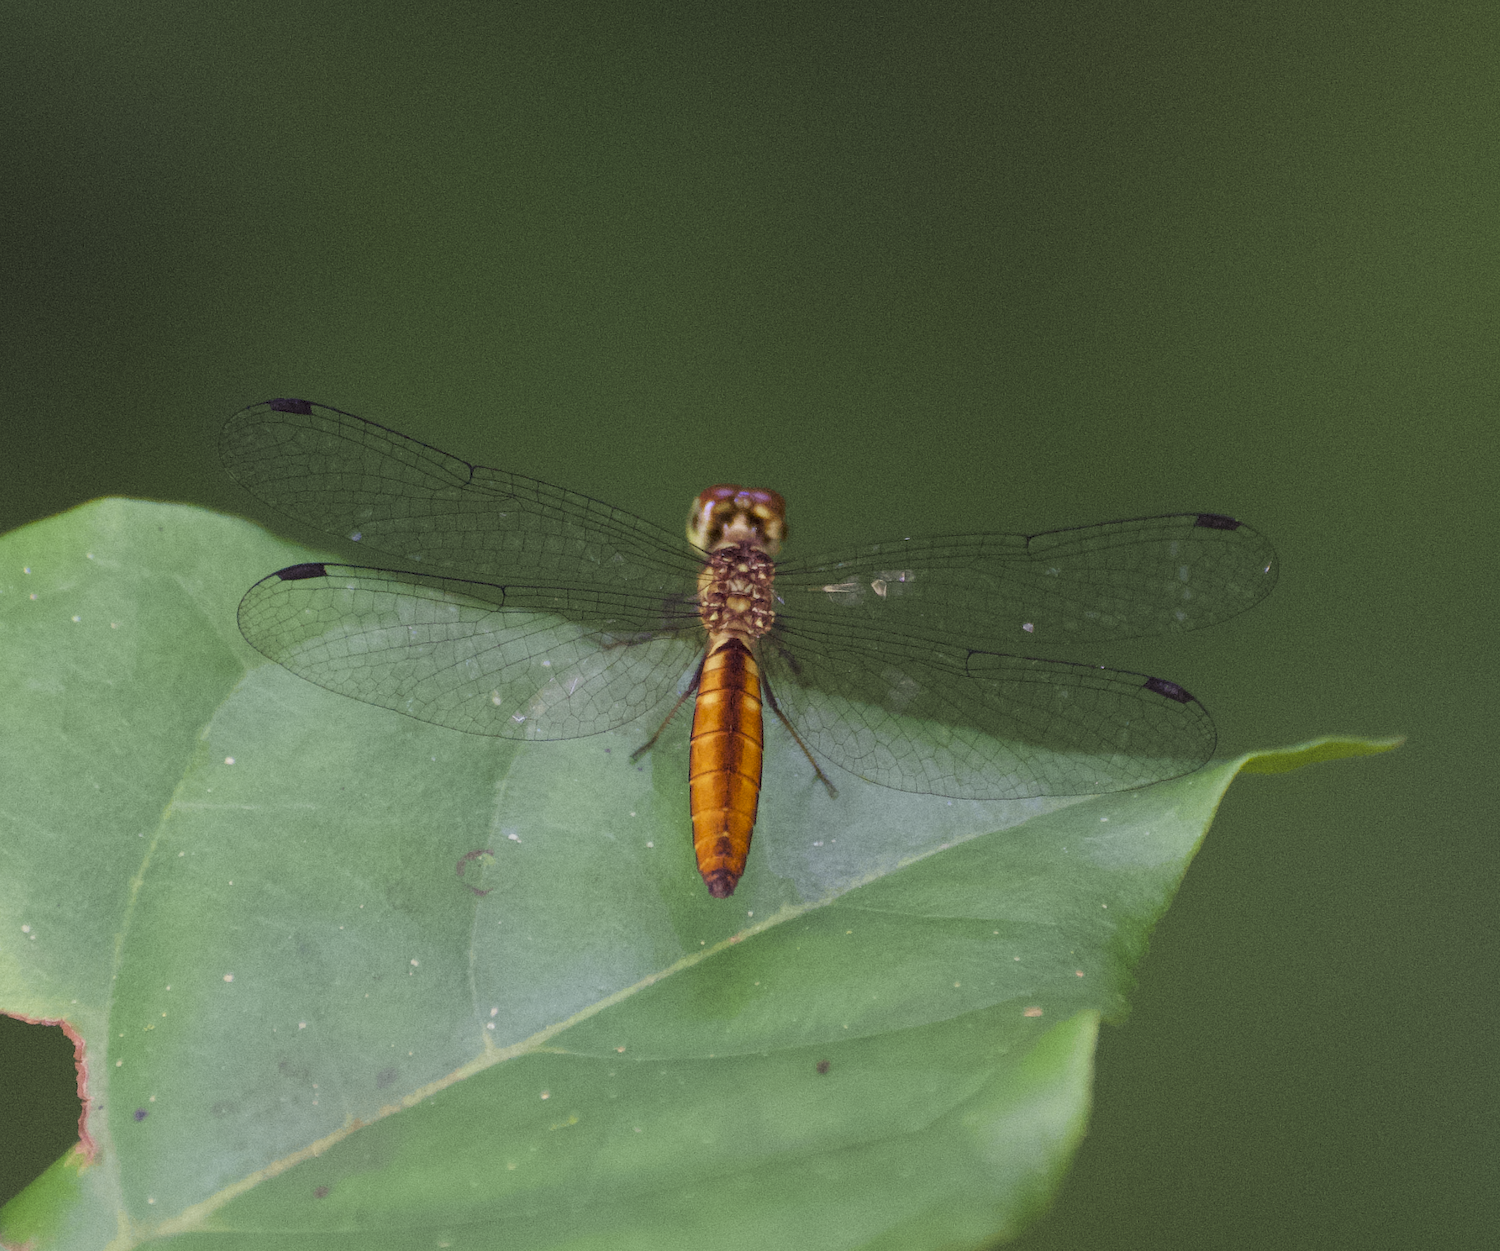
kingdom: Animalia
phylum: Arthropoda
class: Insecta
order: Odonata
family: Libellulidae
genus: Fylgia
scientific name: Fylgia amazonica
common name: White-eyed skimmer
